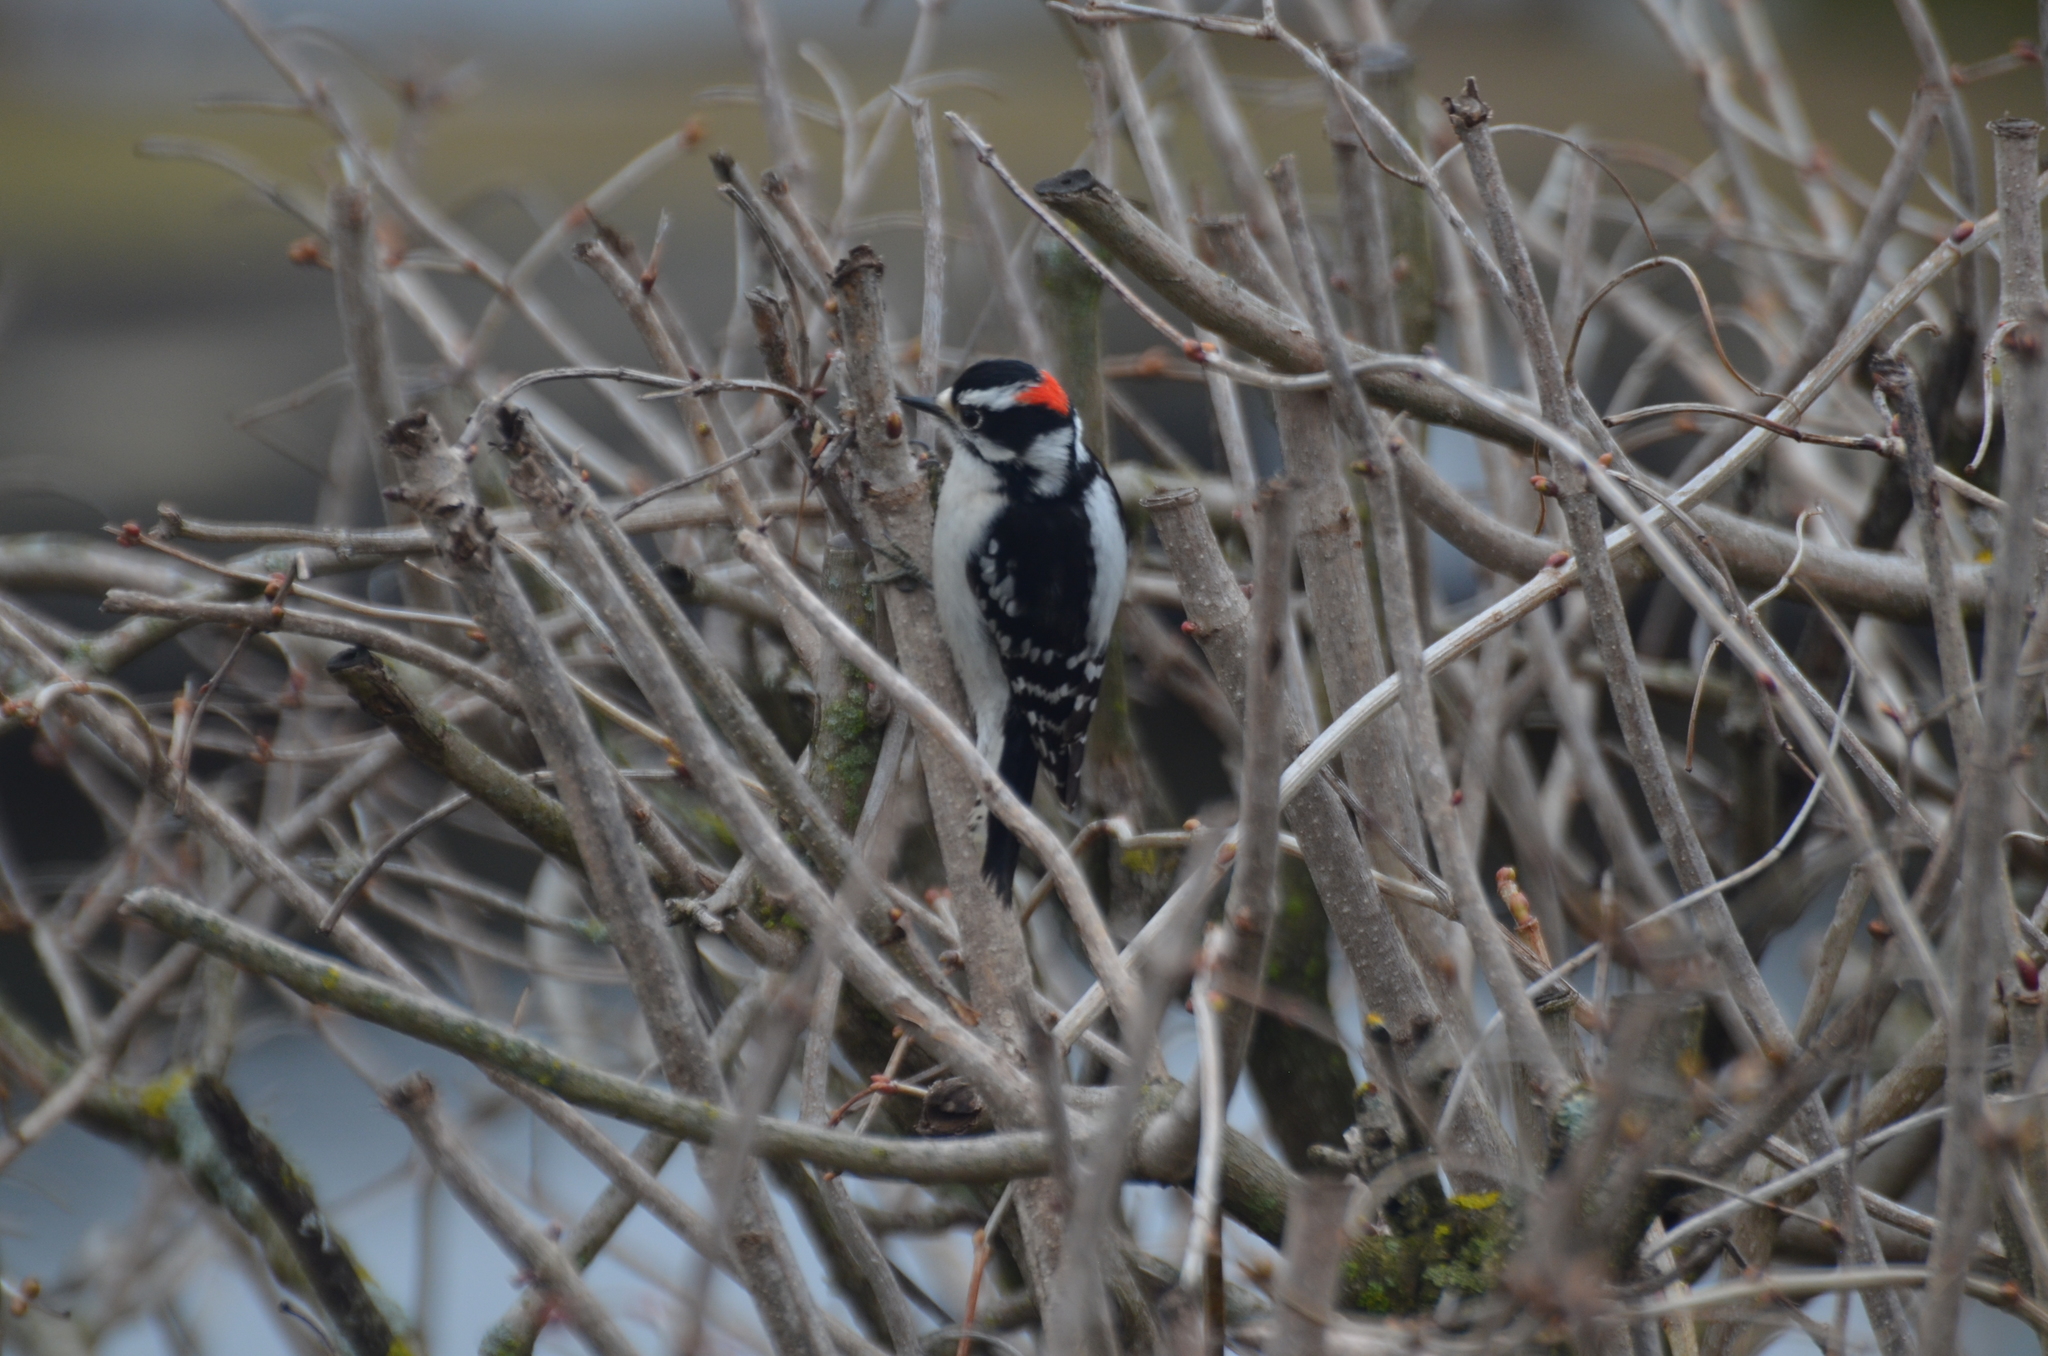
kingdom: Animalia
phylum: Chordata
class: Aves
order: Piciformes
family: Picidae
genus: Dryobates
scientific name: Dryobates pubescens
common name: Downy woodpecker
